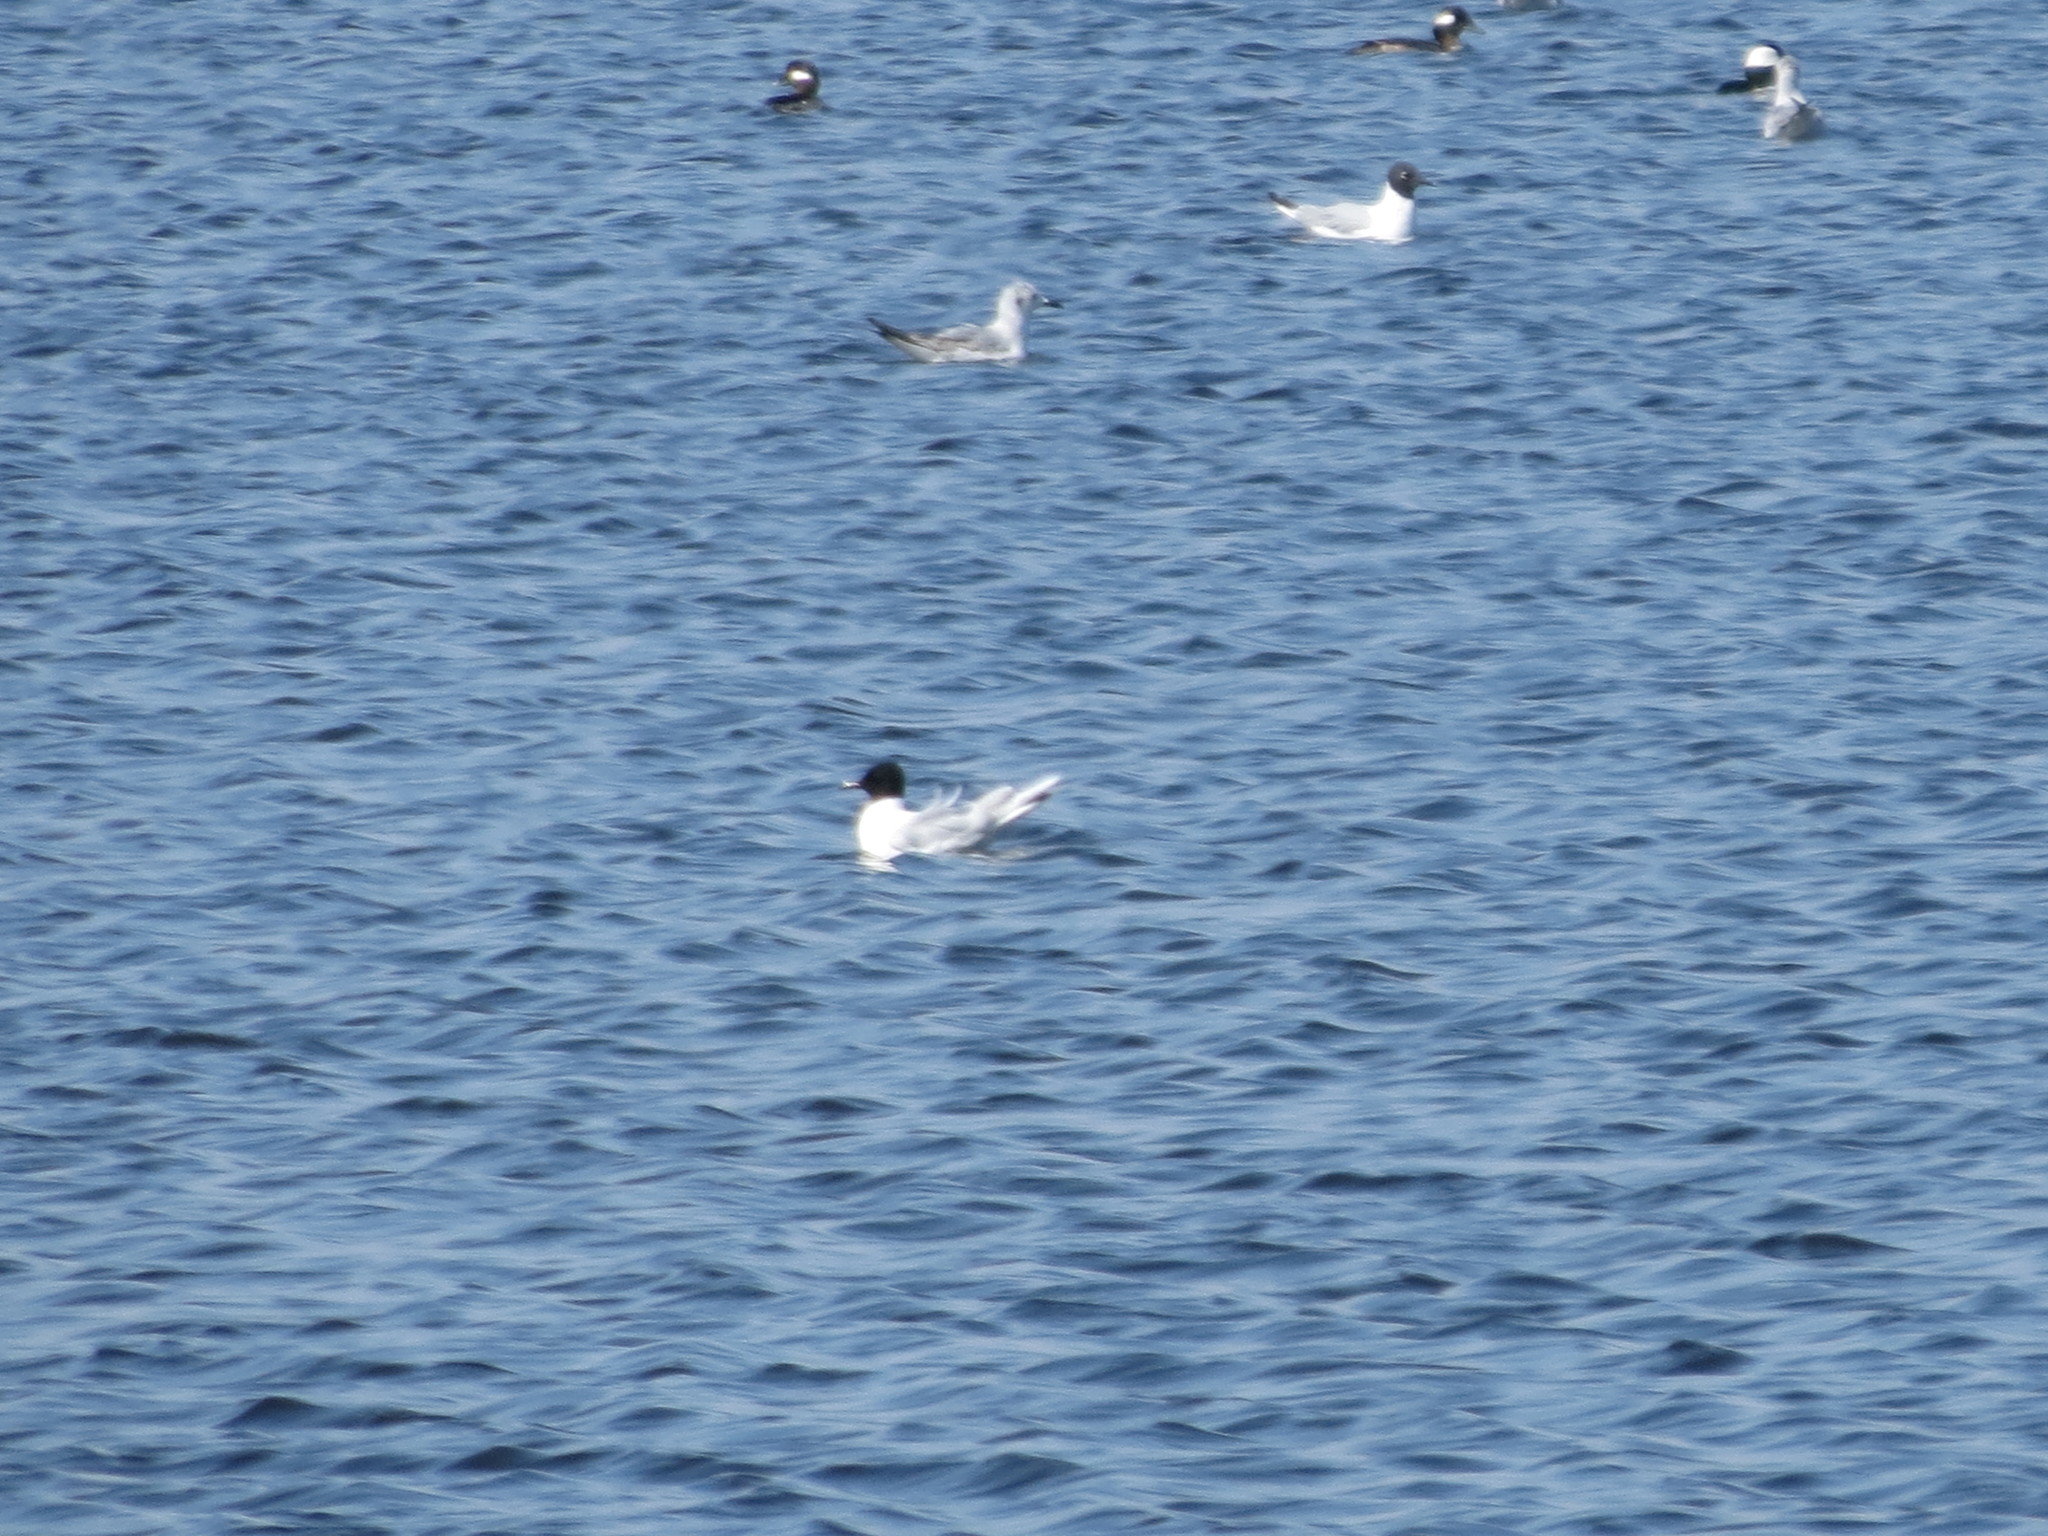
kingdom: Animalia
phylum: Chordata
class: Aves
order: Charadriiformes
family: Laridae
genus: Hydrocoloeus
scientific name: Hydrocoloeus minutus
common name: Little gull
